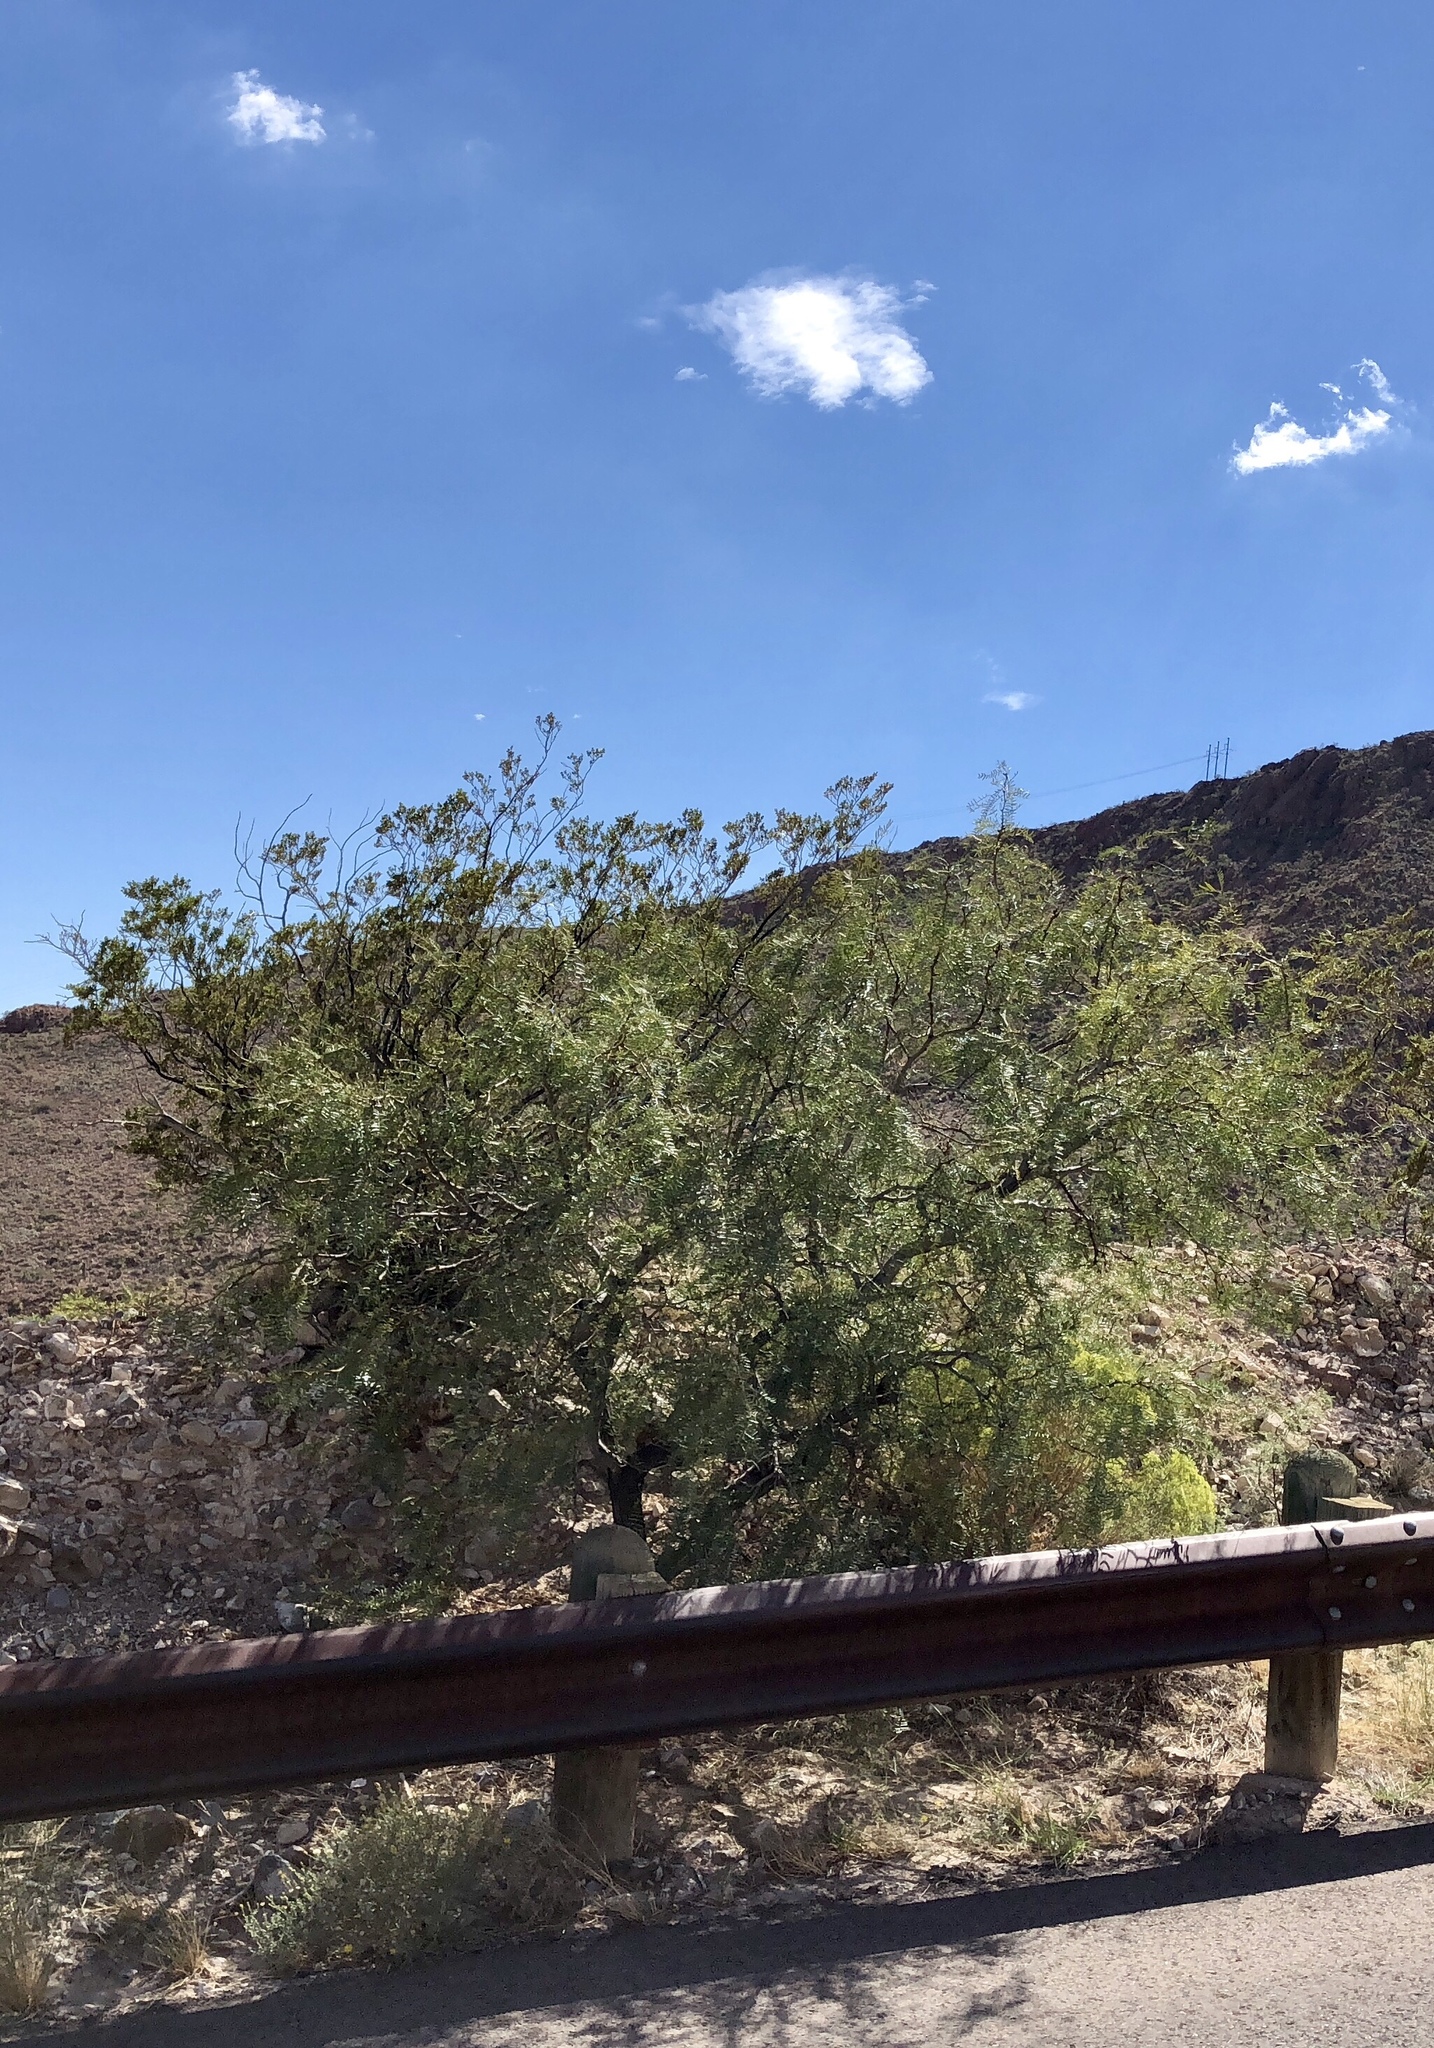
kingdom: Plantae
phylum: Tracheophyta
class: Magnoliopsida
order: Fabales
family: Fabaceae
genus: Prosopis
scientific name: Prosopis glandulosa
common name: Honey mesquite
